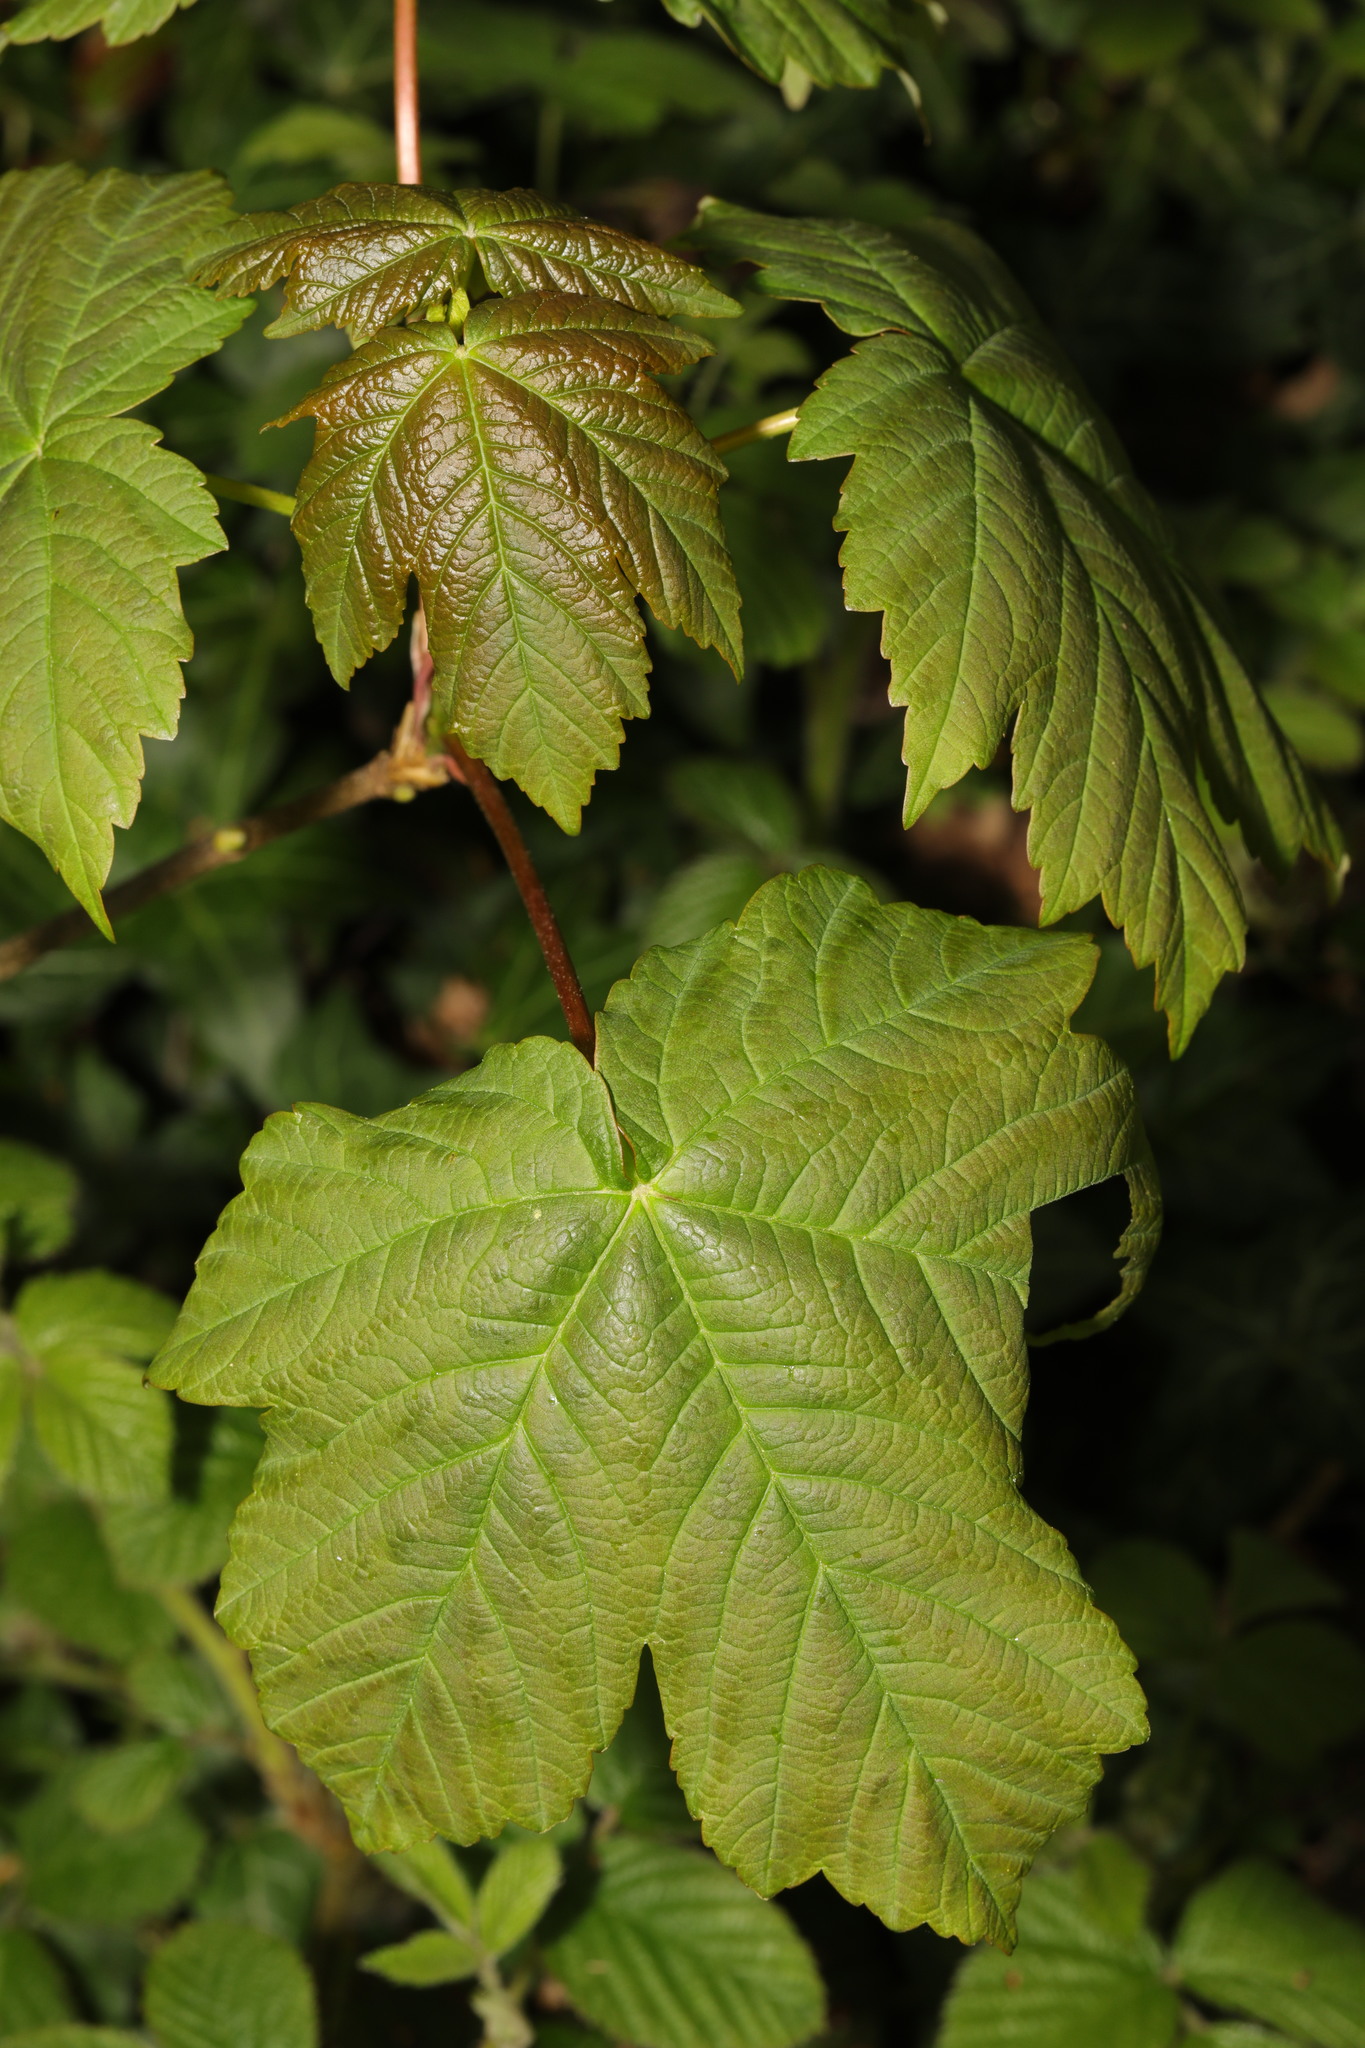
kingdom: Plantae
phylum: Tracheophyta
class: Magnoliopsida
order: Sapindales
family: Sapindaceae
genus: Acer
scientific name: Acer pseudoplatanus
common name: Sycamore
